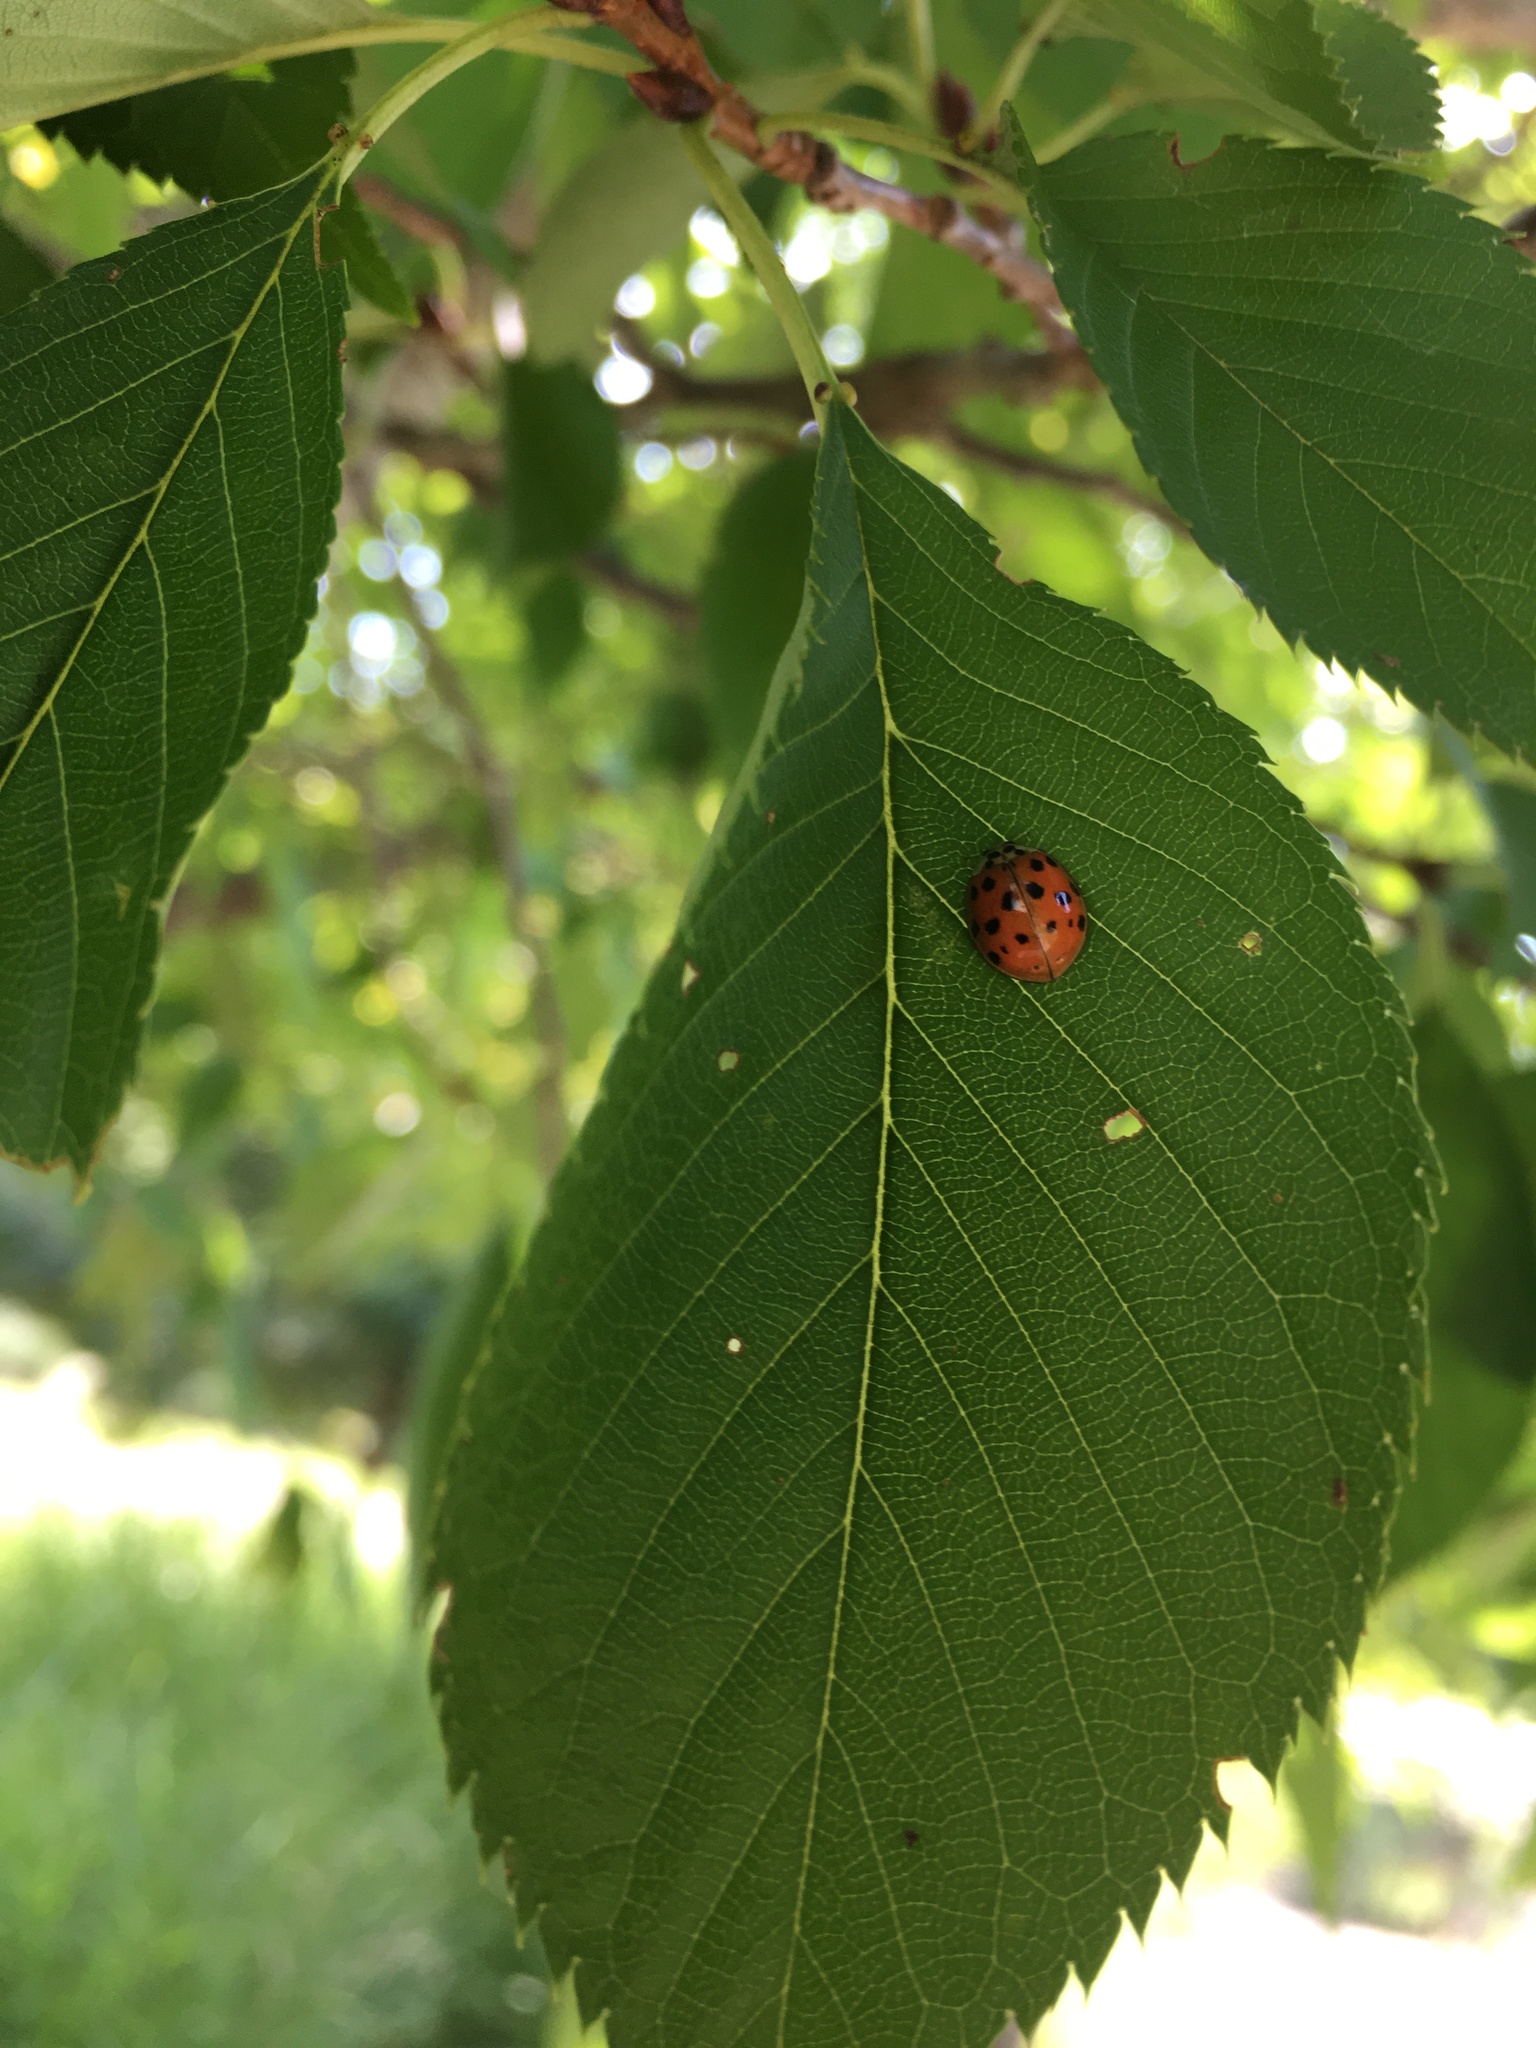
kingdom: Animalia
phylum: Arthropoda
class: Insecta
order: Coleoptera
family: Coccinellidae
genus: Harmonia
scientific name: Harmonia axyridis
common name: Harlequin ladybird
